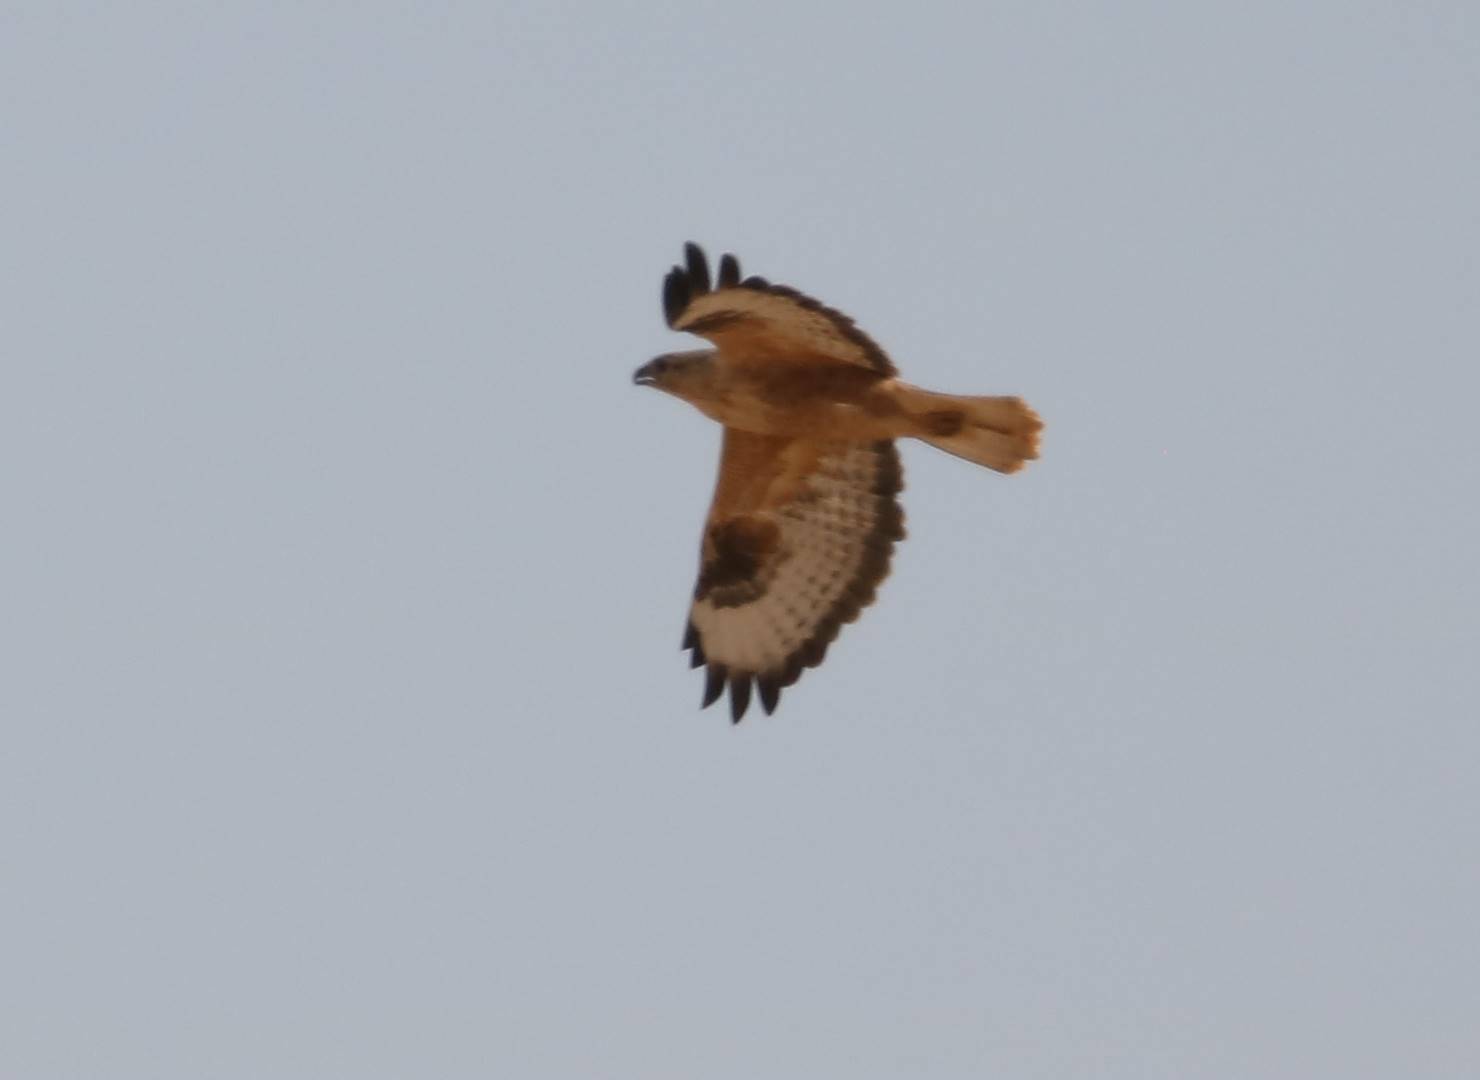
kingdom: Animalia
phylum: Chordata
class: Aves
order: Accipitriformes
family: Accipitridae
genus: Buteo
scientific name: Buteo rufinus
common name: Long-legged buzzard
